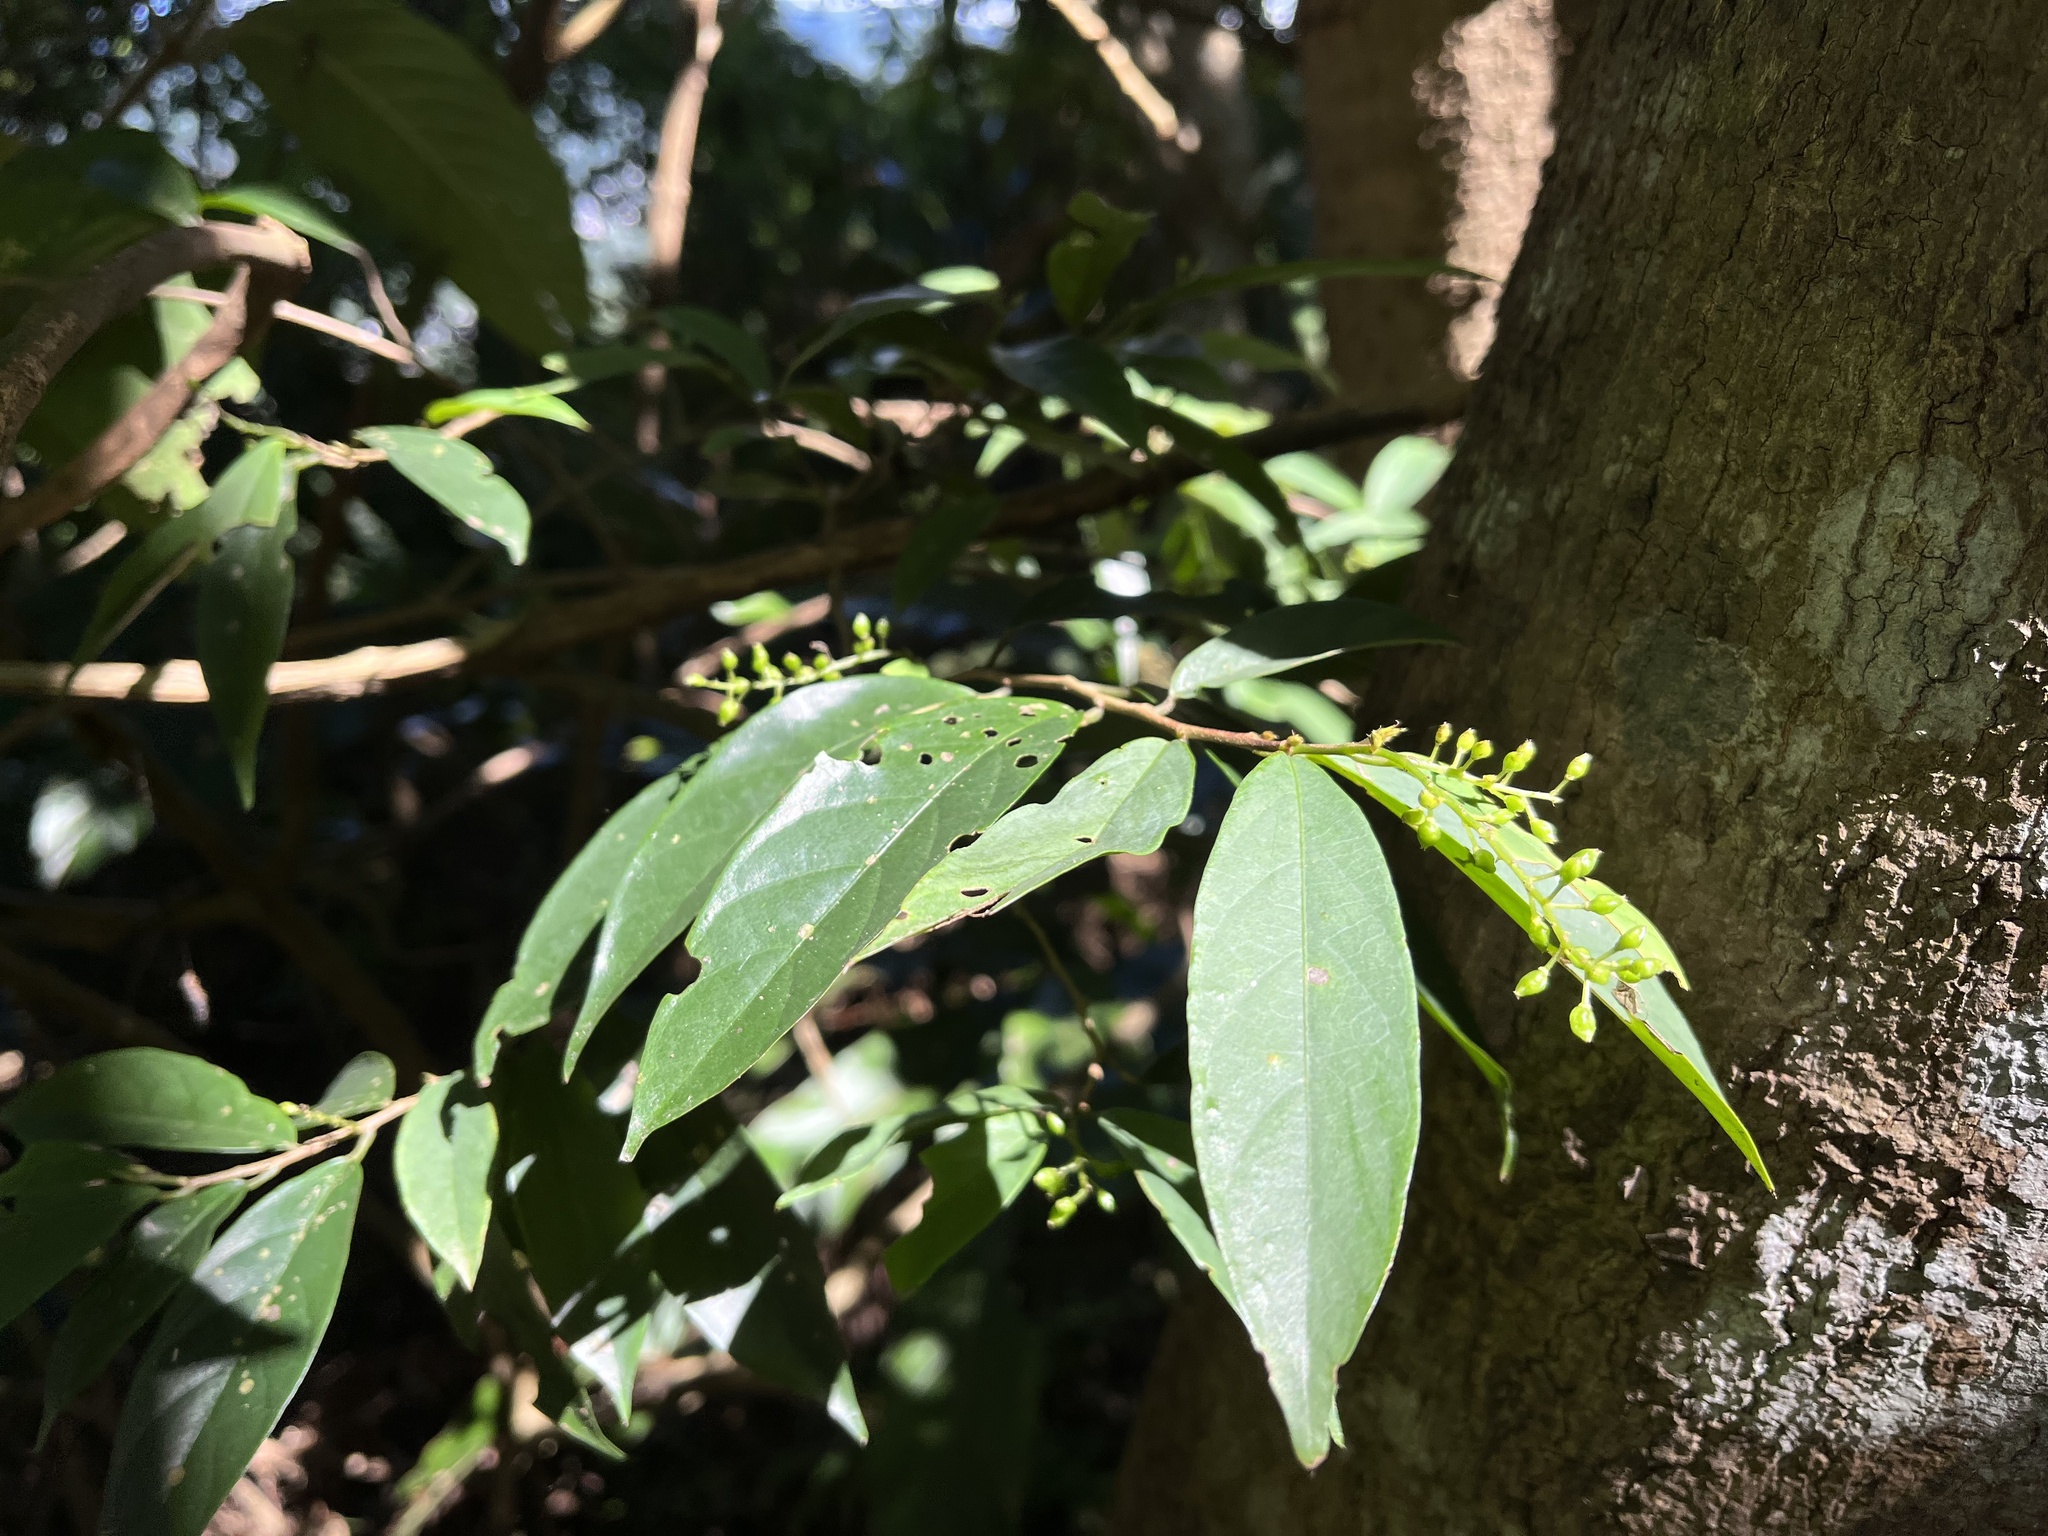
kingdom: Plantae
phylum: Tracheophyta
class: Magnoliopsida
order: Malpighiales
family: Phyllanthaceae
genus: Antidesma
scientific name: Antidesma japonicum
